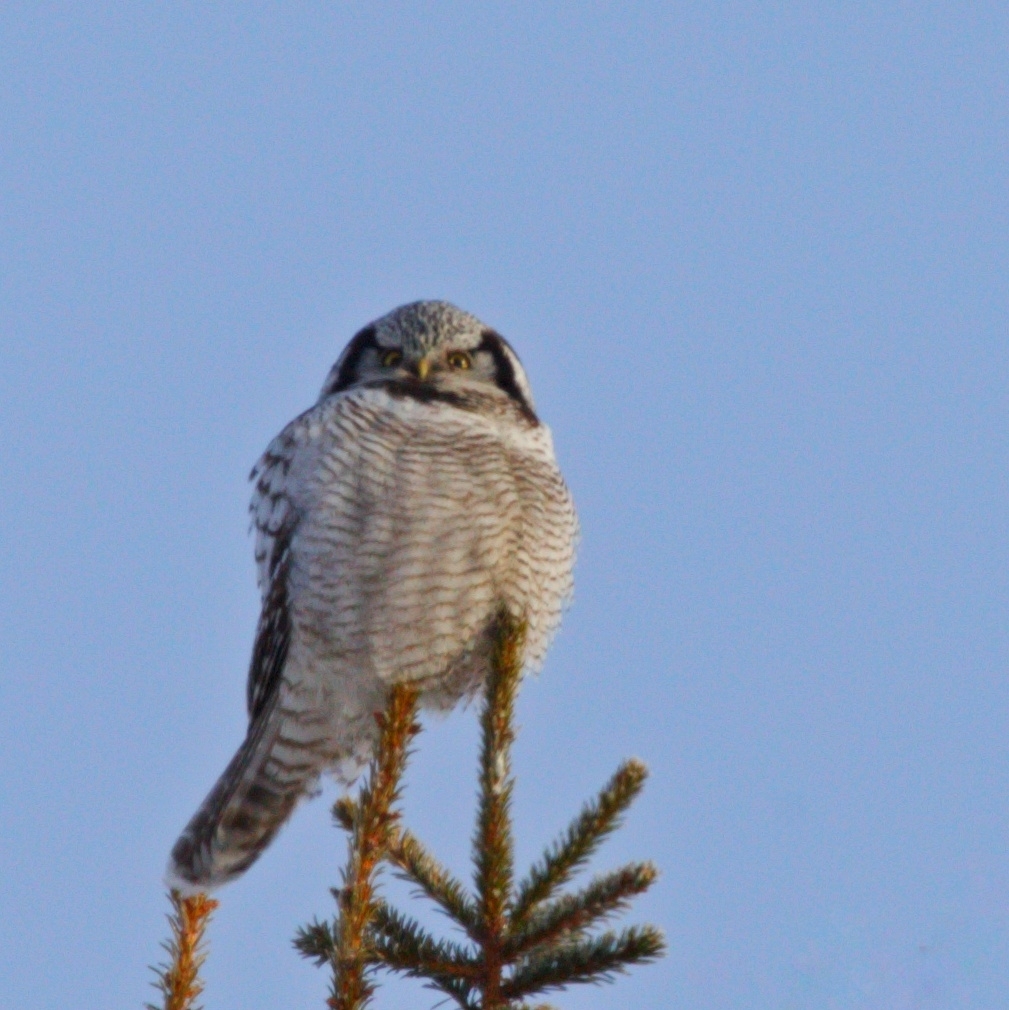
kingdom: Animalia
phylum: Chordata
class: Aves
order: Strigiformes
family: Strigidae
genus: Surnia
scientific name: Surnia ulula
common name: Northern hawk-owl
